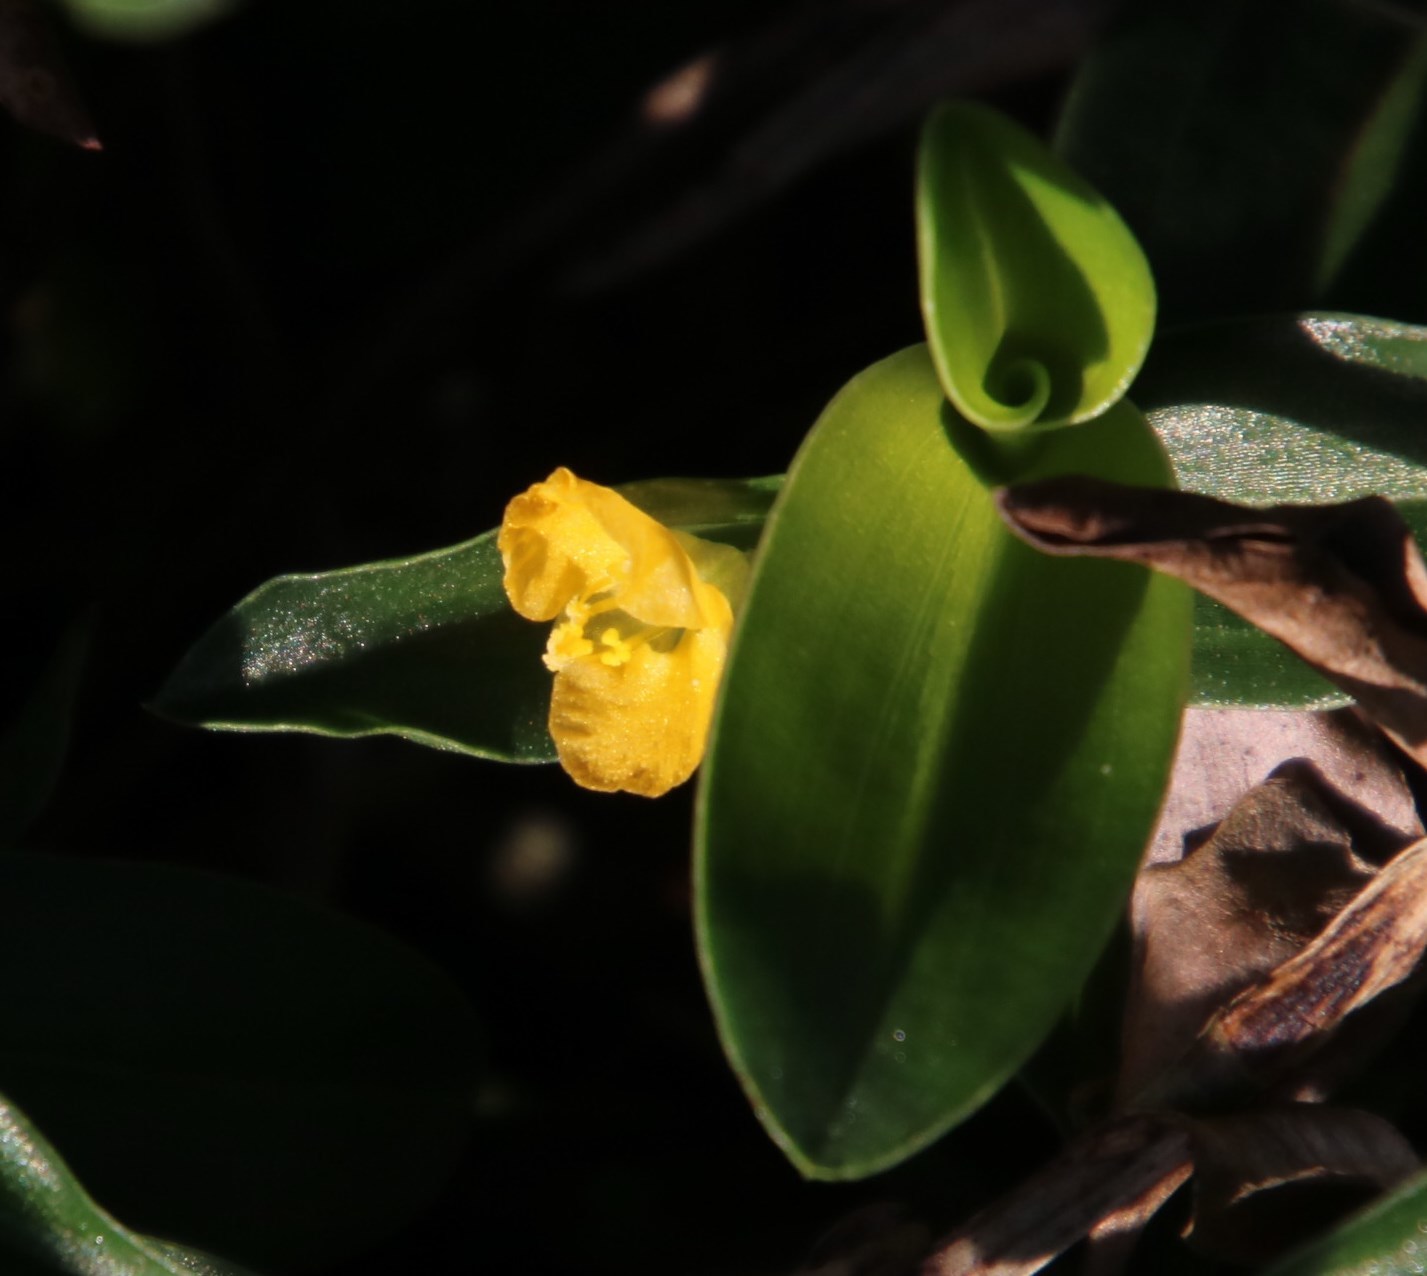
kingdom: Plantae
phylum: Tracheophyta
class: Liliopsida
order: Commelinales
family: Commelinaceae
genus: Commelina
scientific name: Commelina africana
